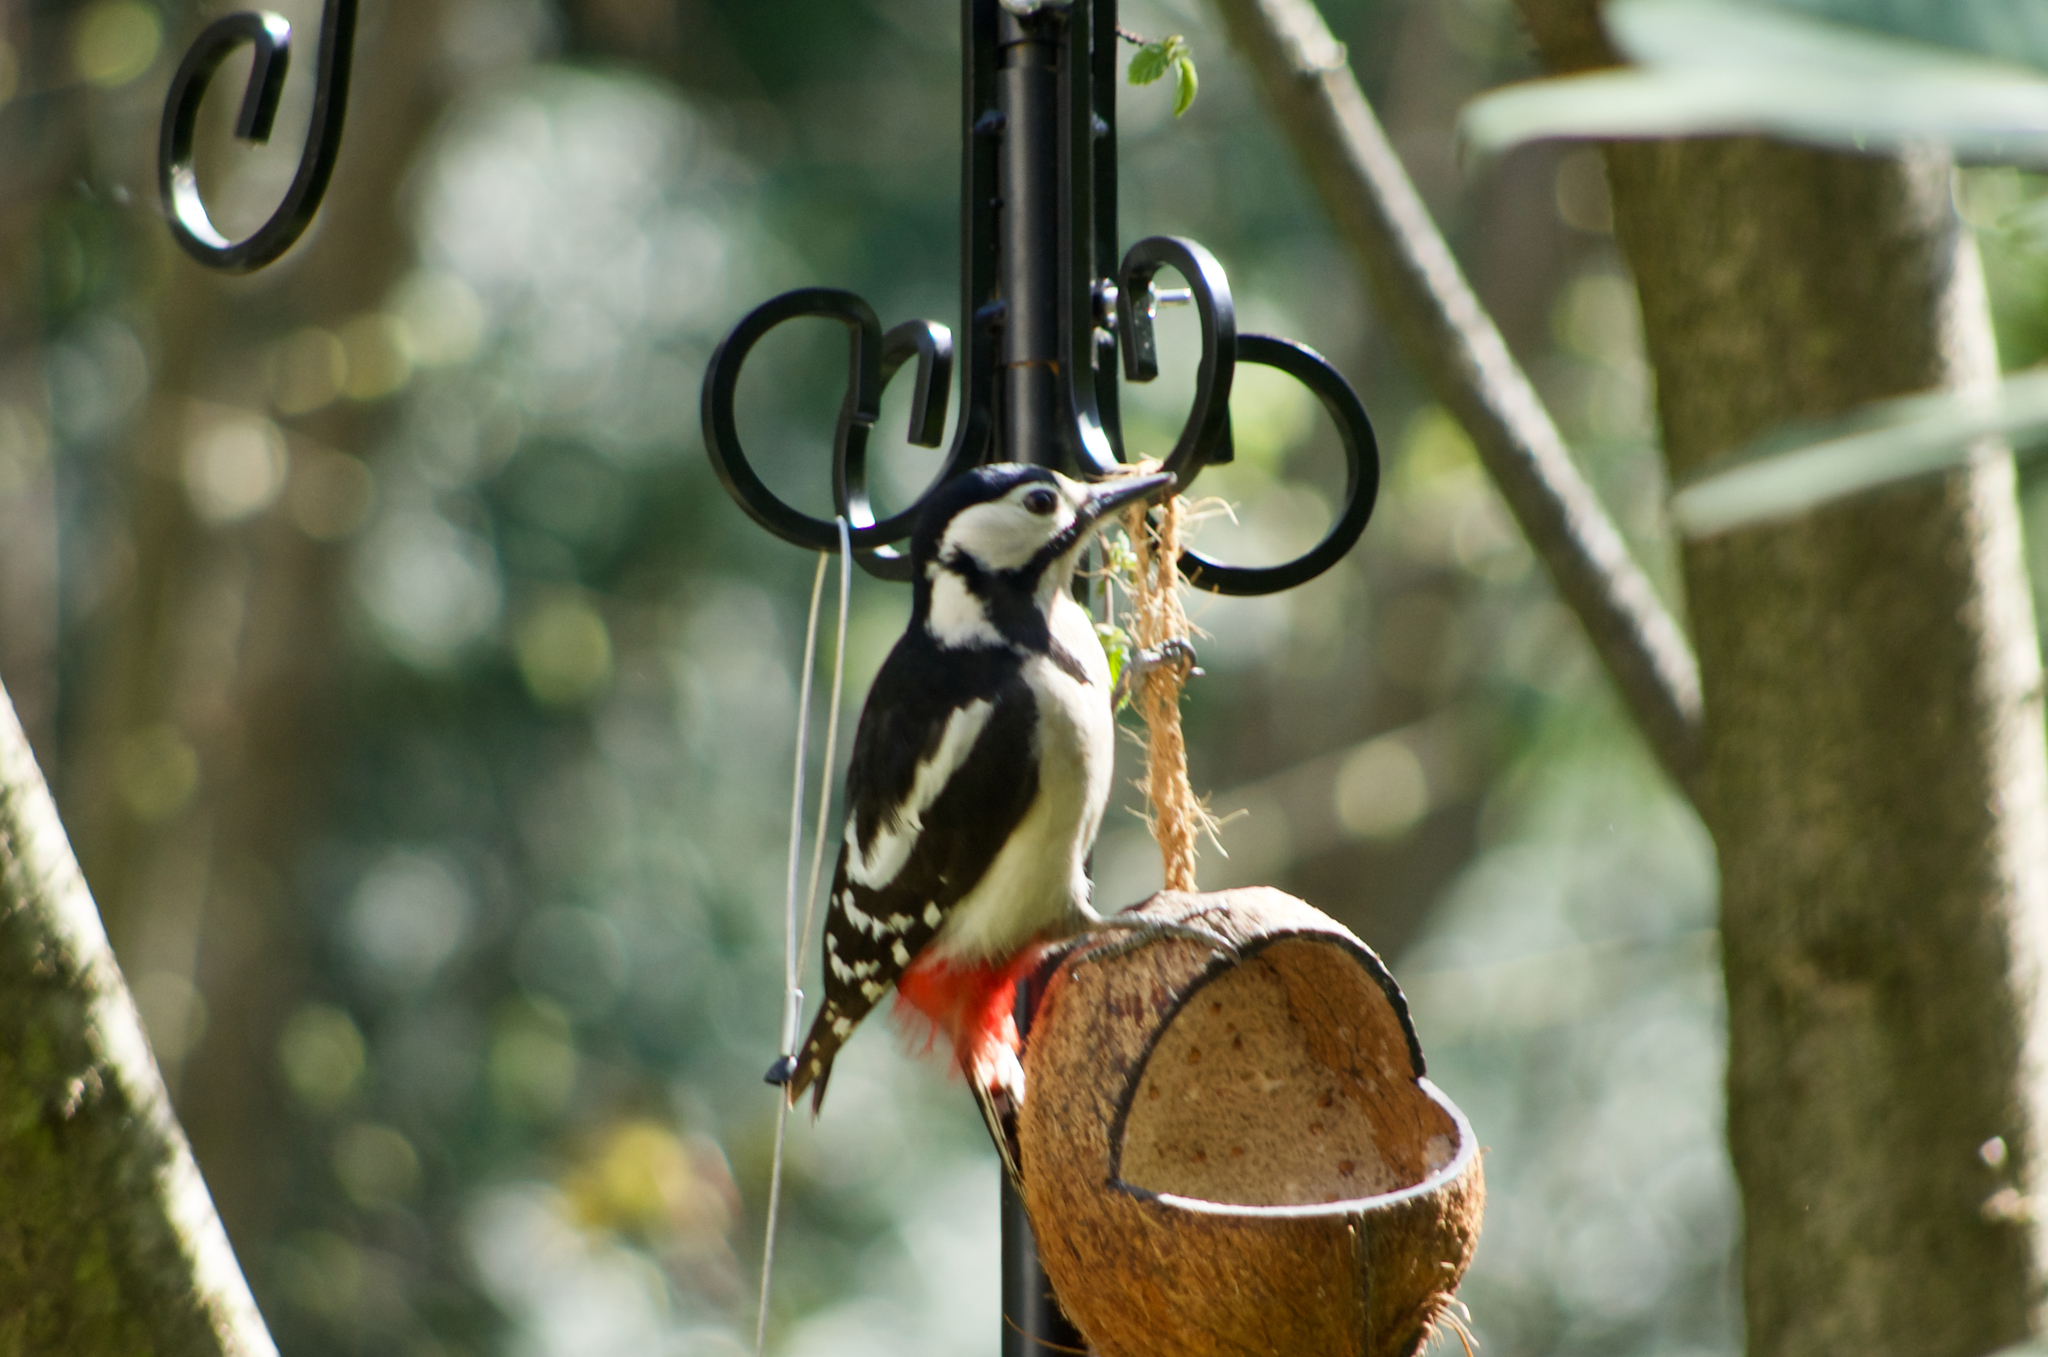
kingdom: Animalia
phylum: Chordata
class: Aves
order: Piciformes
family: Picidae
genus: Dendrocopos
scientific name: Dendrocopos major
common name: Great spotted woodpecker
